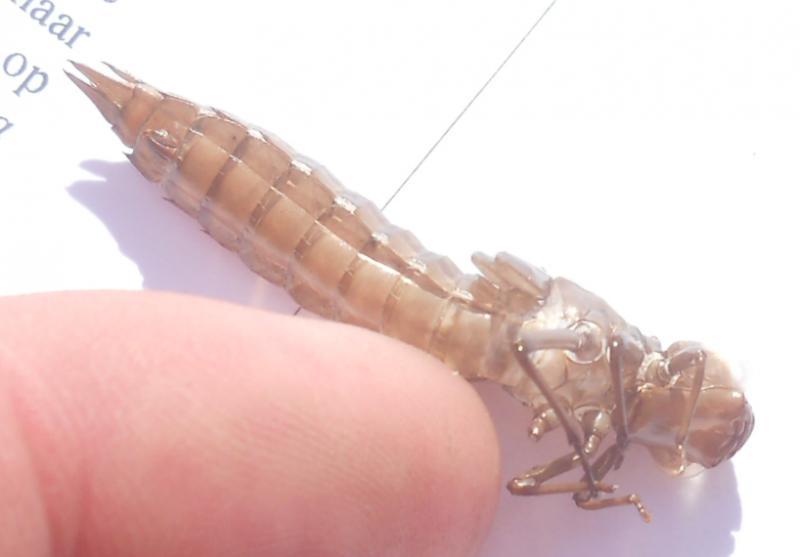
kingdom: Animalia
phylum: Arthropoda
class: Insecta
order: Odonata
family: Aeshnidae
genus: Aeshna
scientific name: Aeshna subarctica
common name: Subarctic darner
